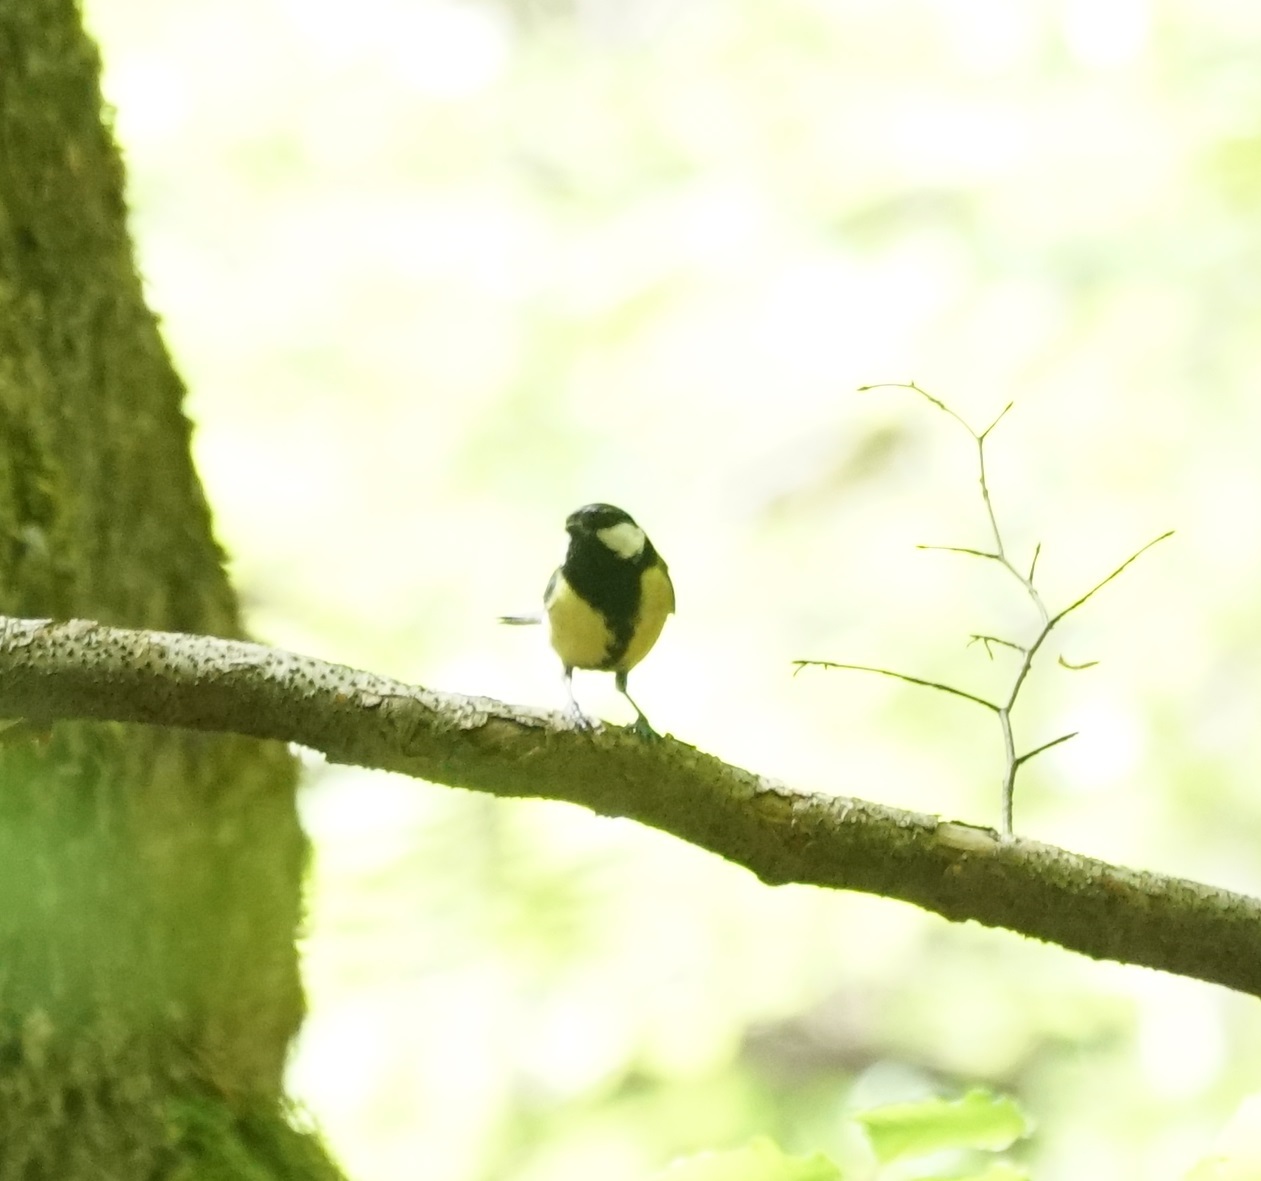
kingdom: Animalia
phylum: Chordata
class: Aves
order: Passeriformes
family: Paridae
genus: Parus
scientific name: Parus major
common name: Great tit
